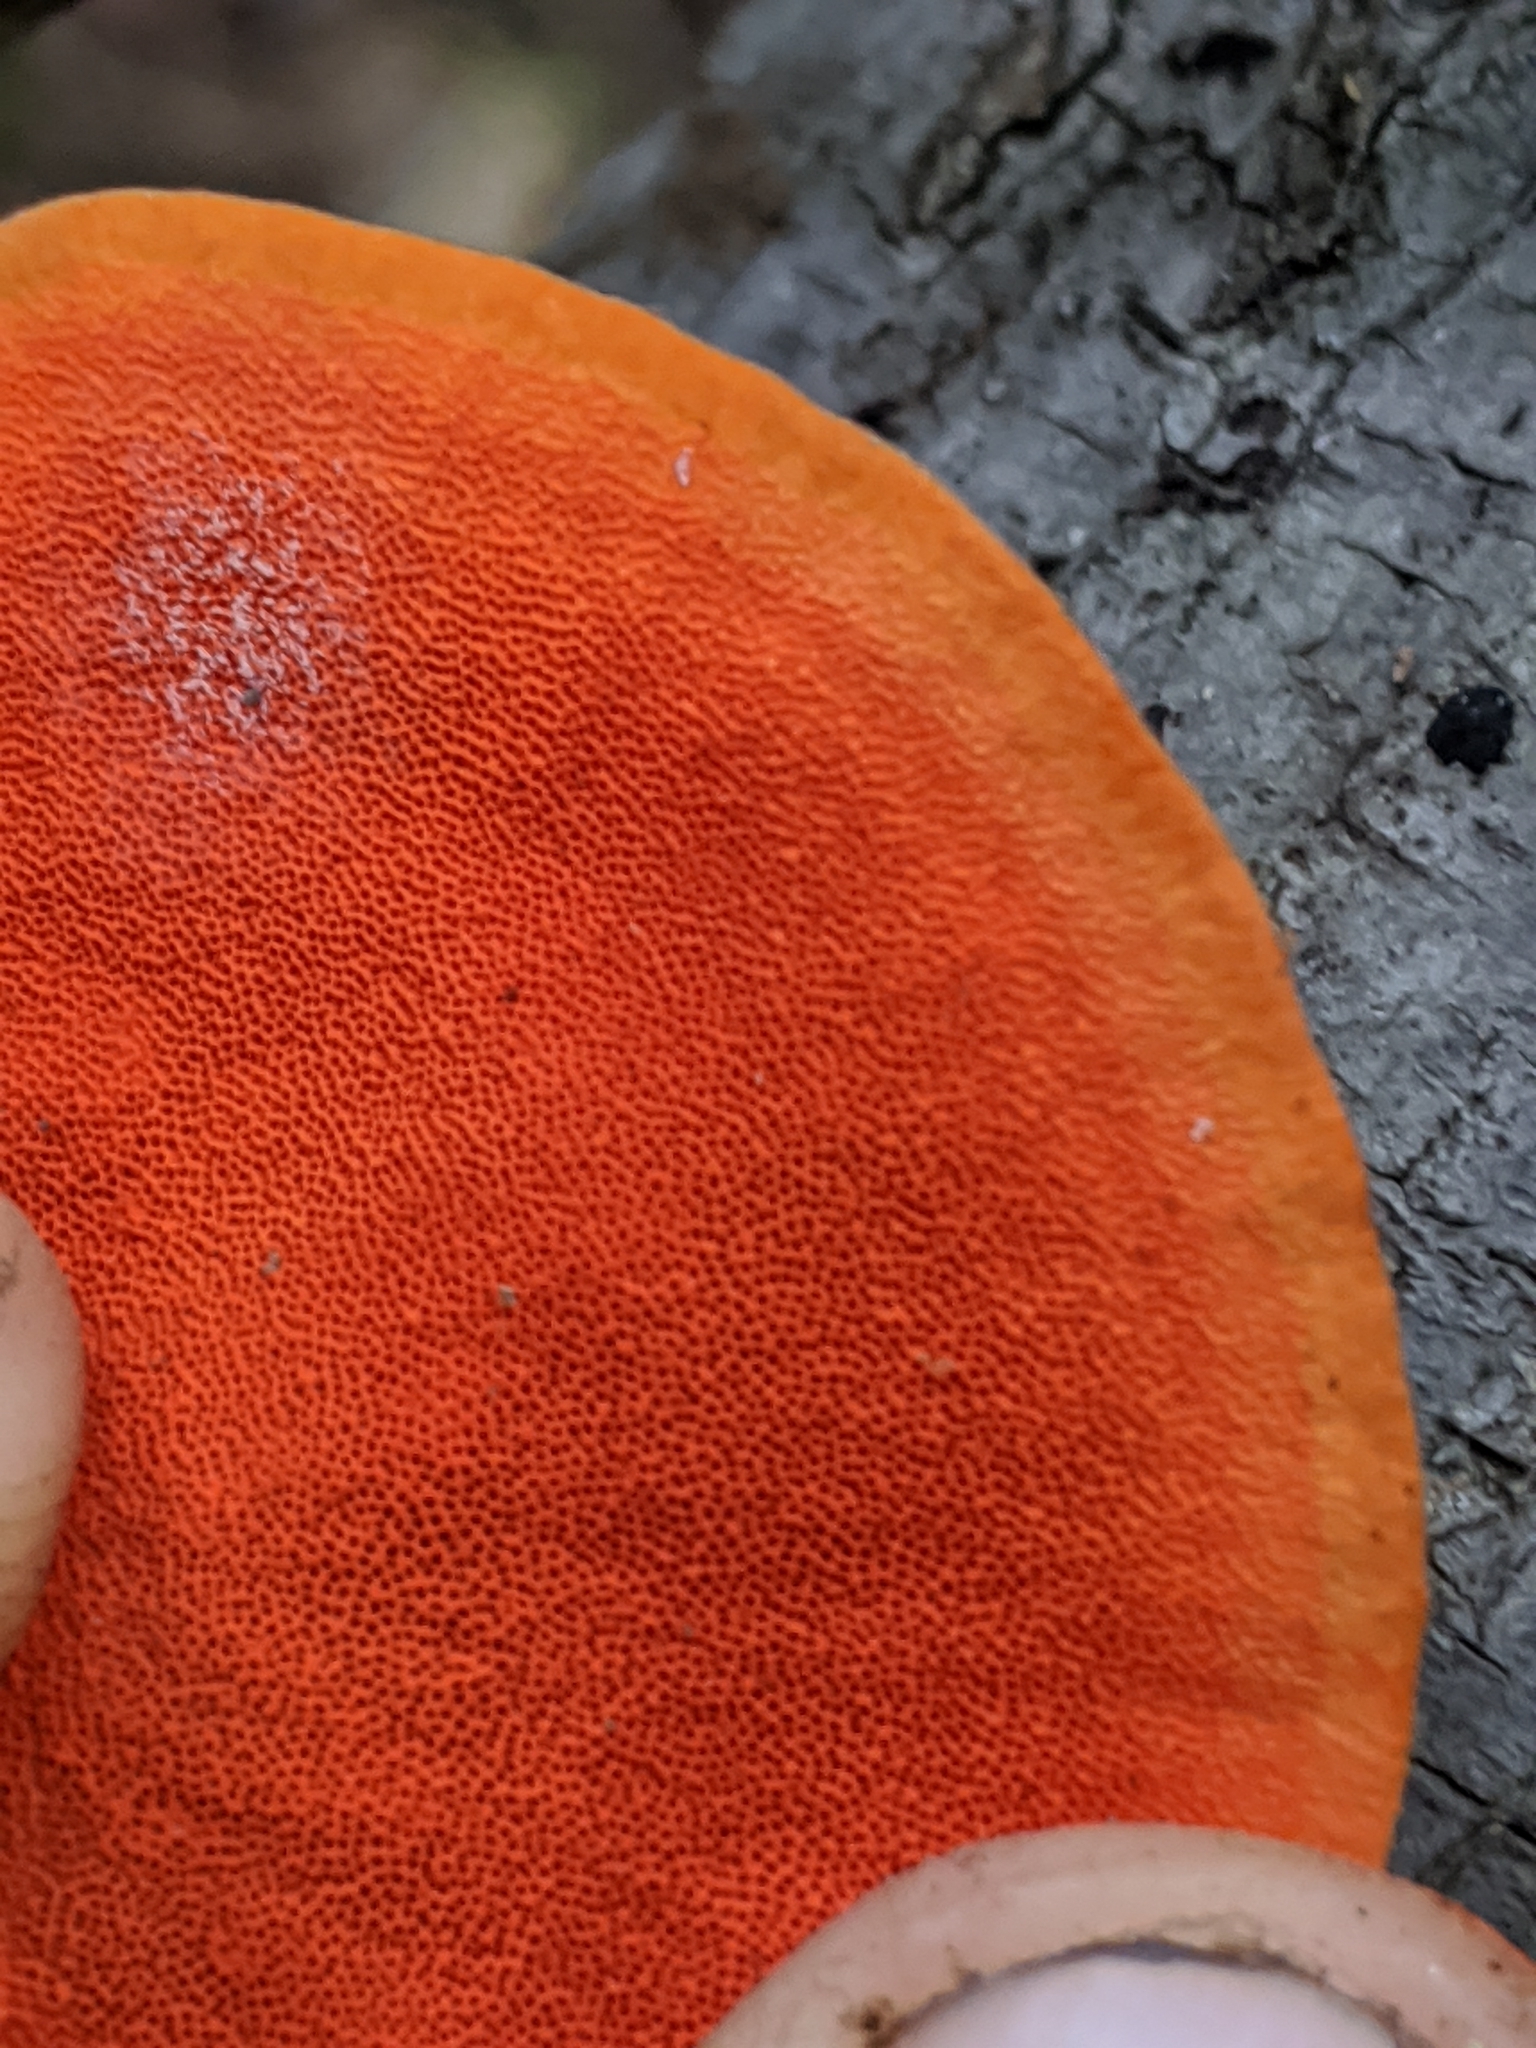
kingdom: Fungi
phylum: Basidiomycota
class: Agaricomycetes
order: Polyporales
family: Polyporaceae
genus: Trametes
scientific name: Trametes cinnabarina
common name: Northern cinnabar polypore
